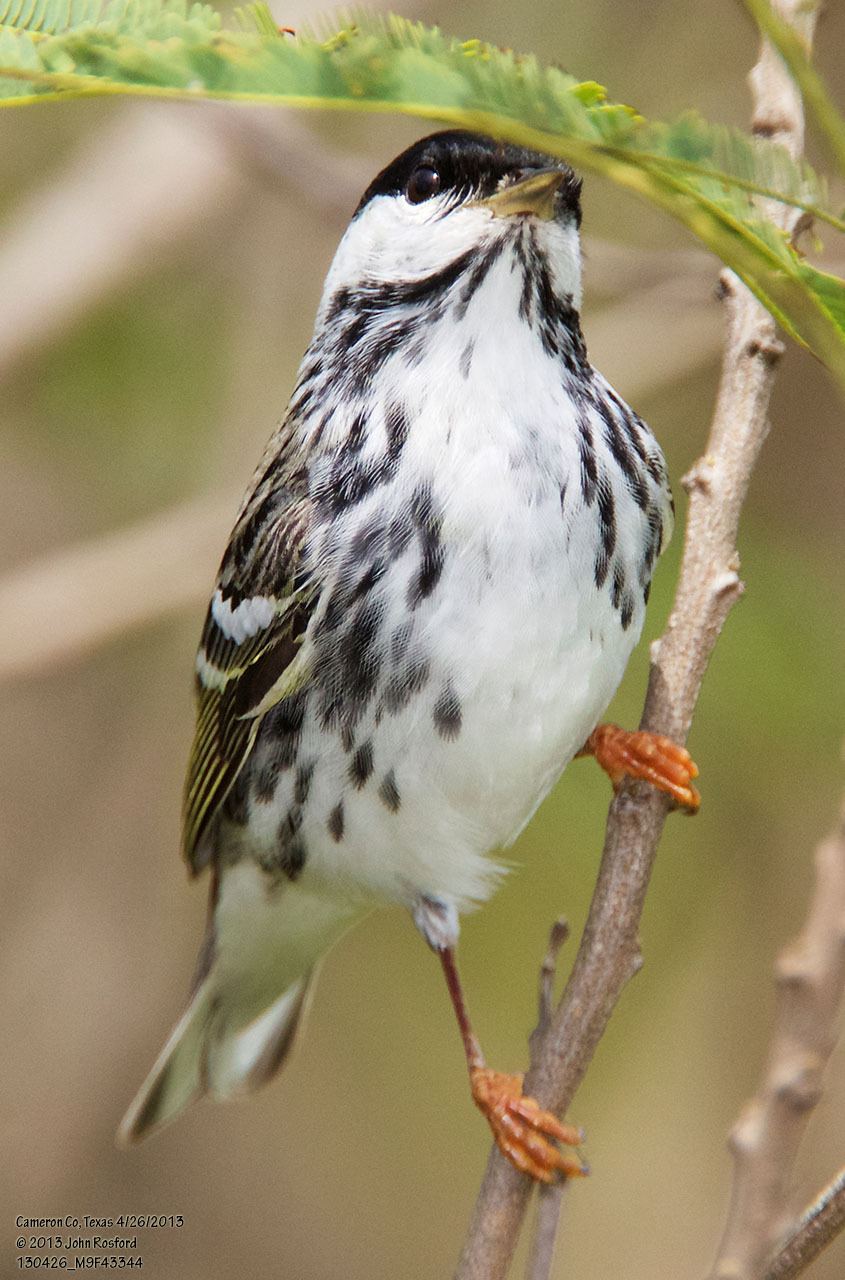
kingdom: Animalia
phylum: Chordata
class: Aves
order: Passeriformes
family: Parulidae
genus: Setophaga
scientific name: Setophaga striata
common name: Blackpoll warbler
